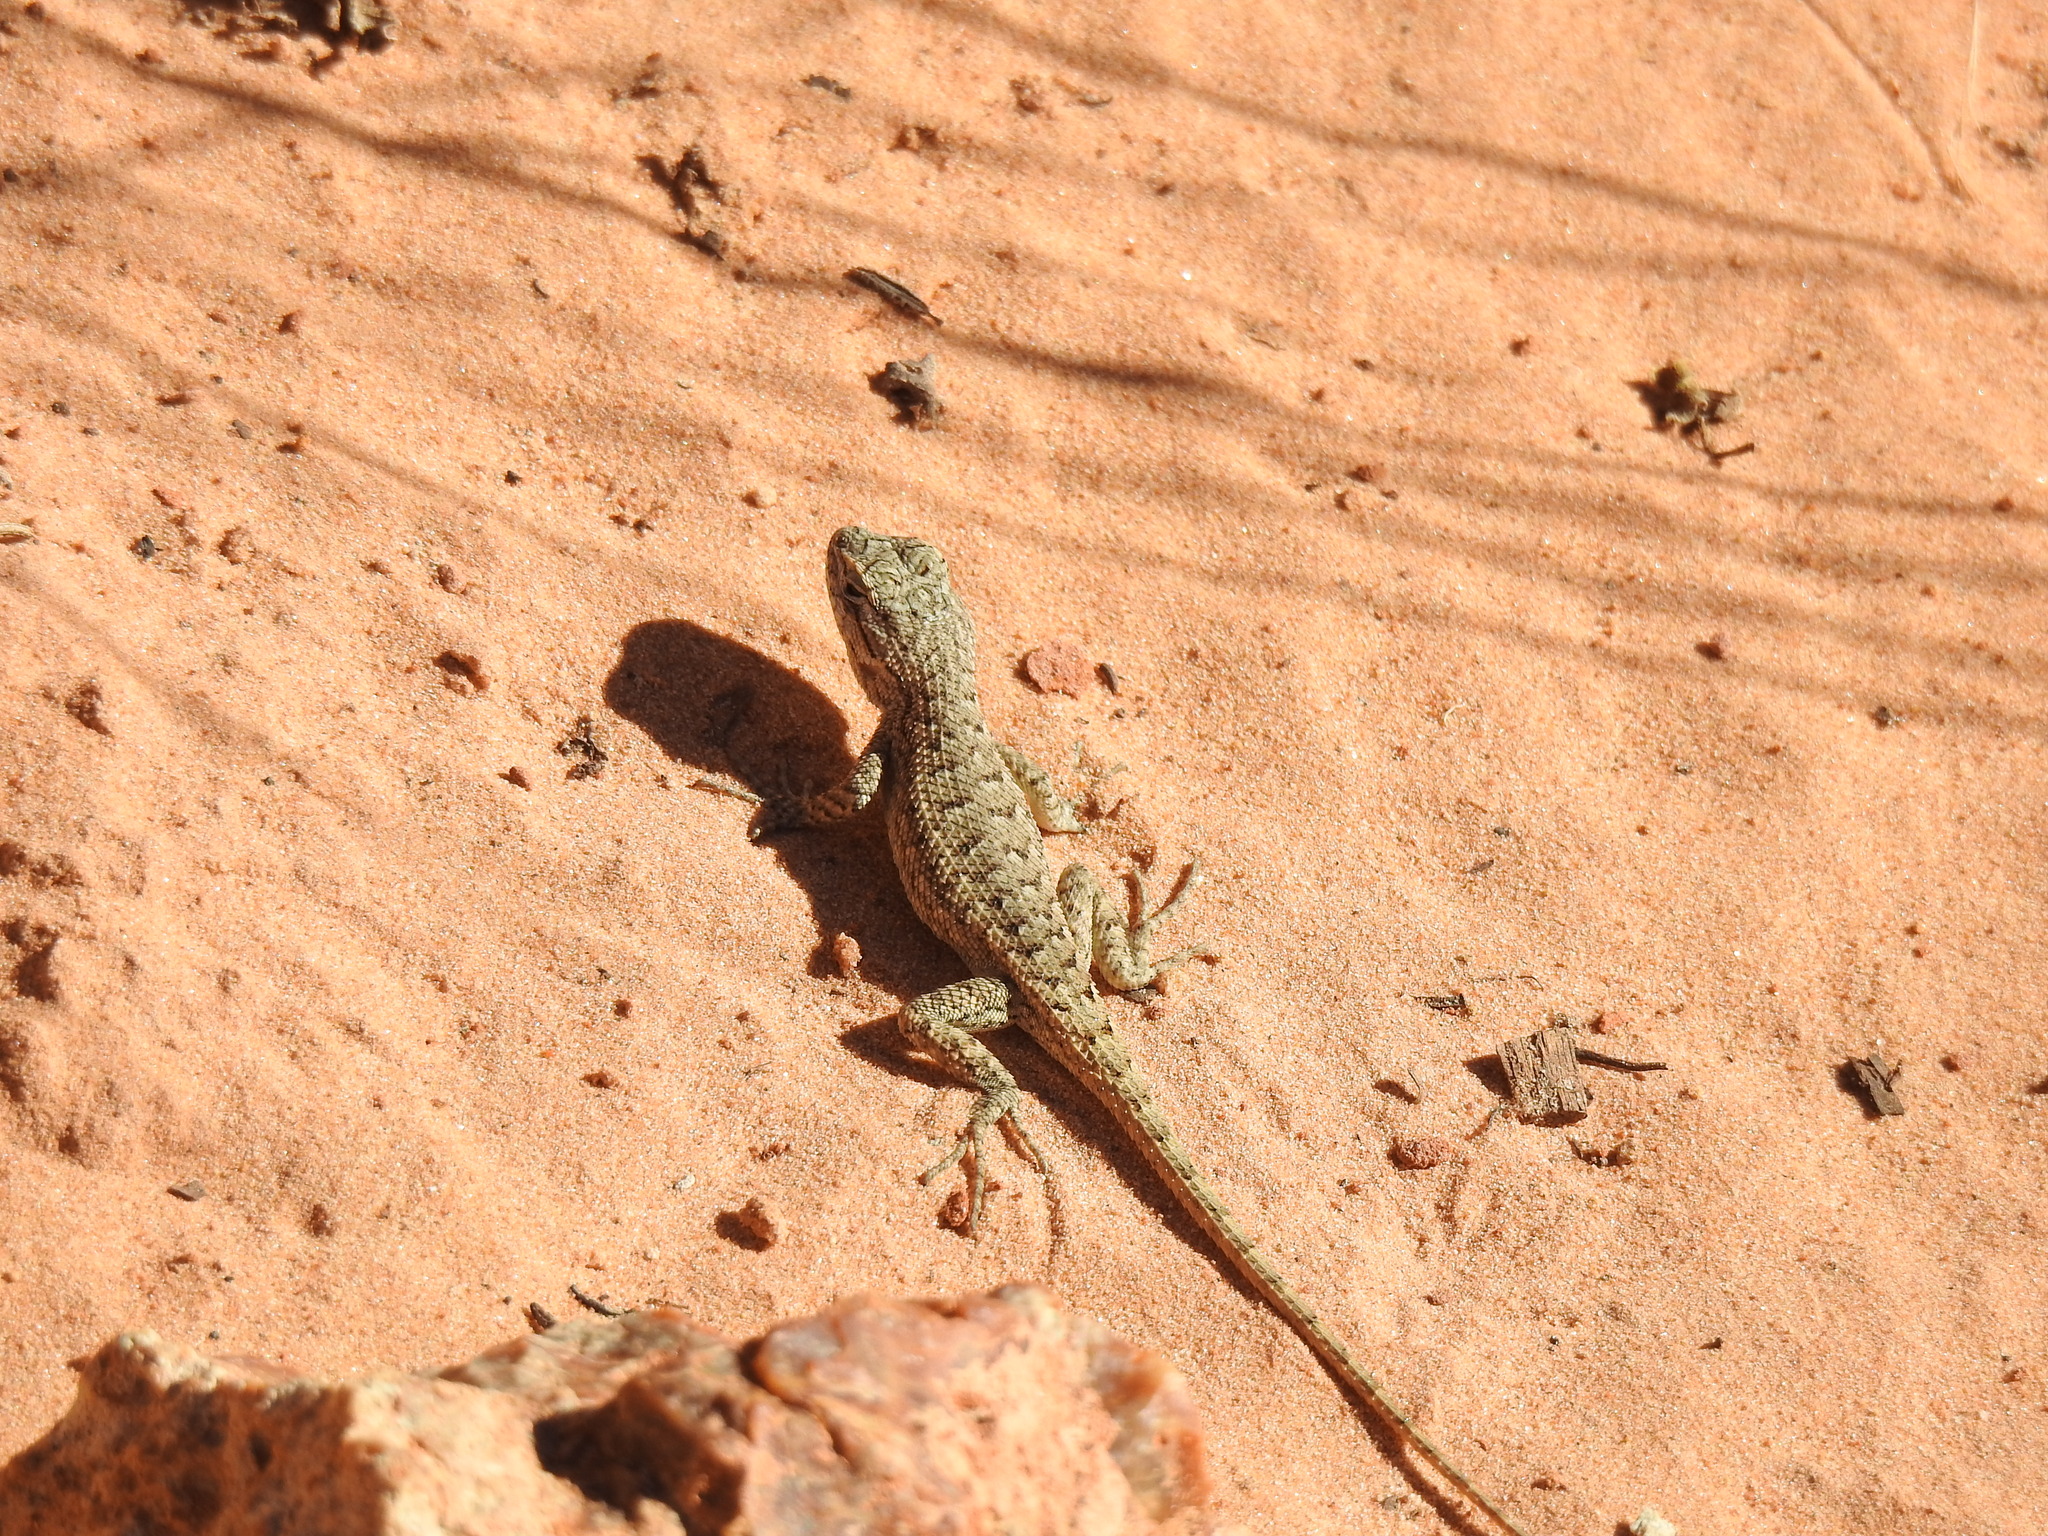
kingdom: Animalia
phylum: Chordata
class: Squamata
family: Phrynosomatidae
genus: Sceloporus
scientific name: Sceloporus tristichus
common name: Plateau fence lizard
